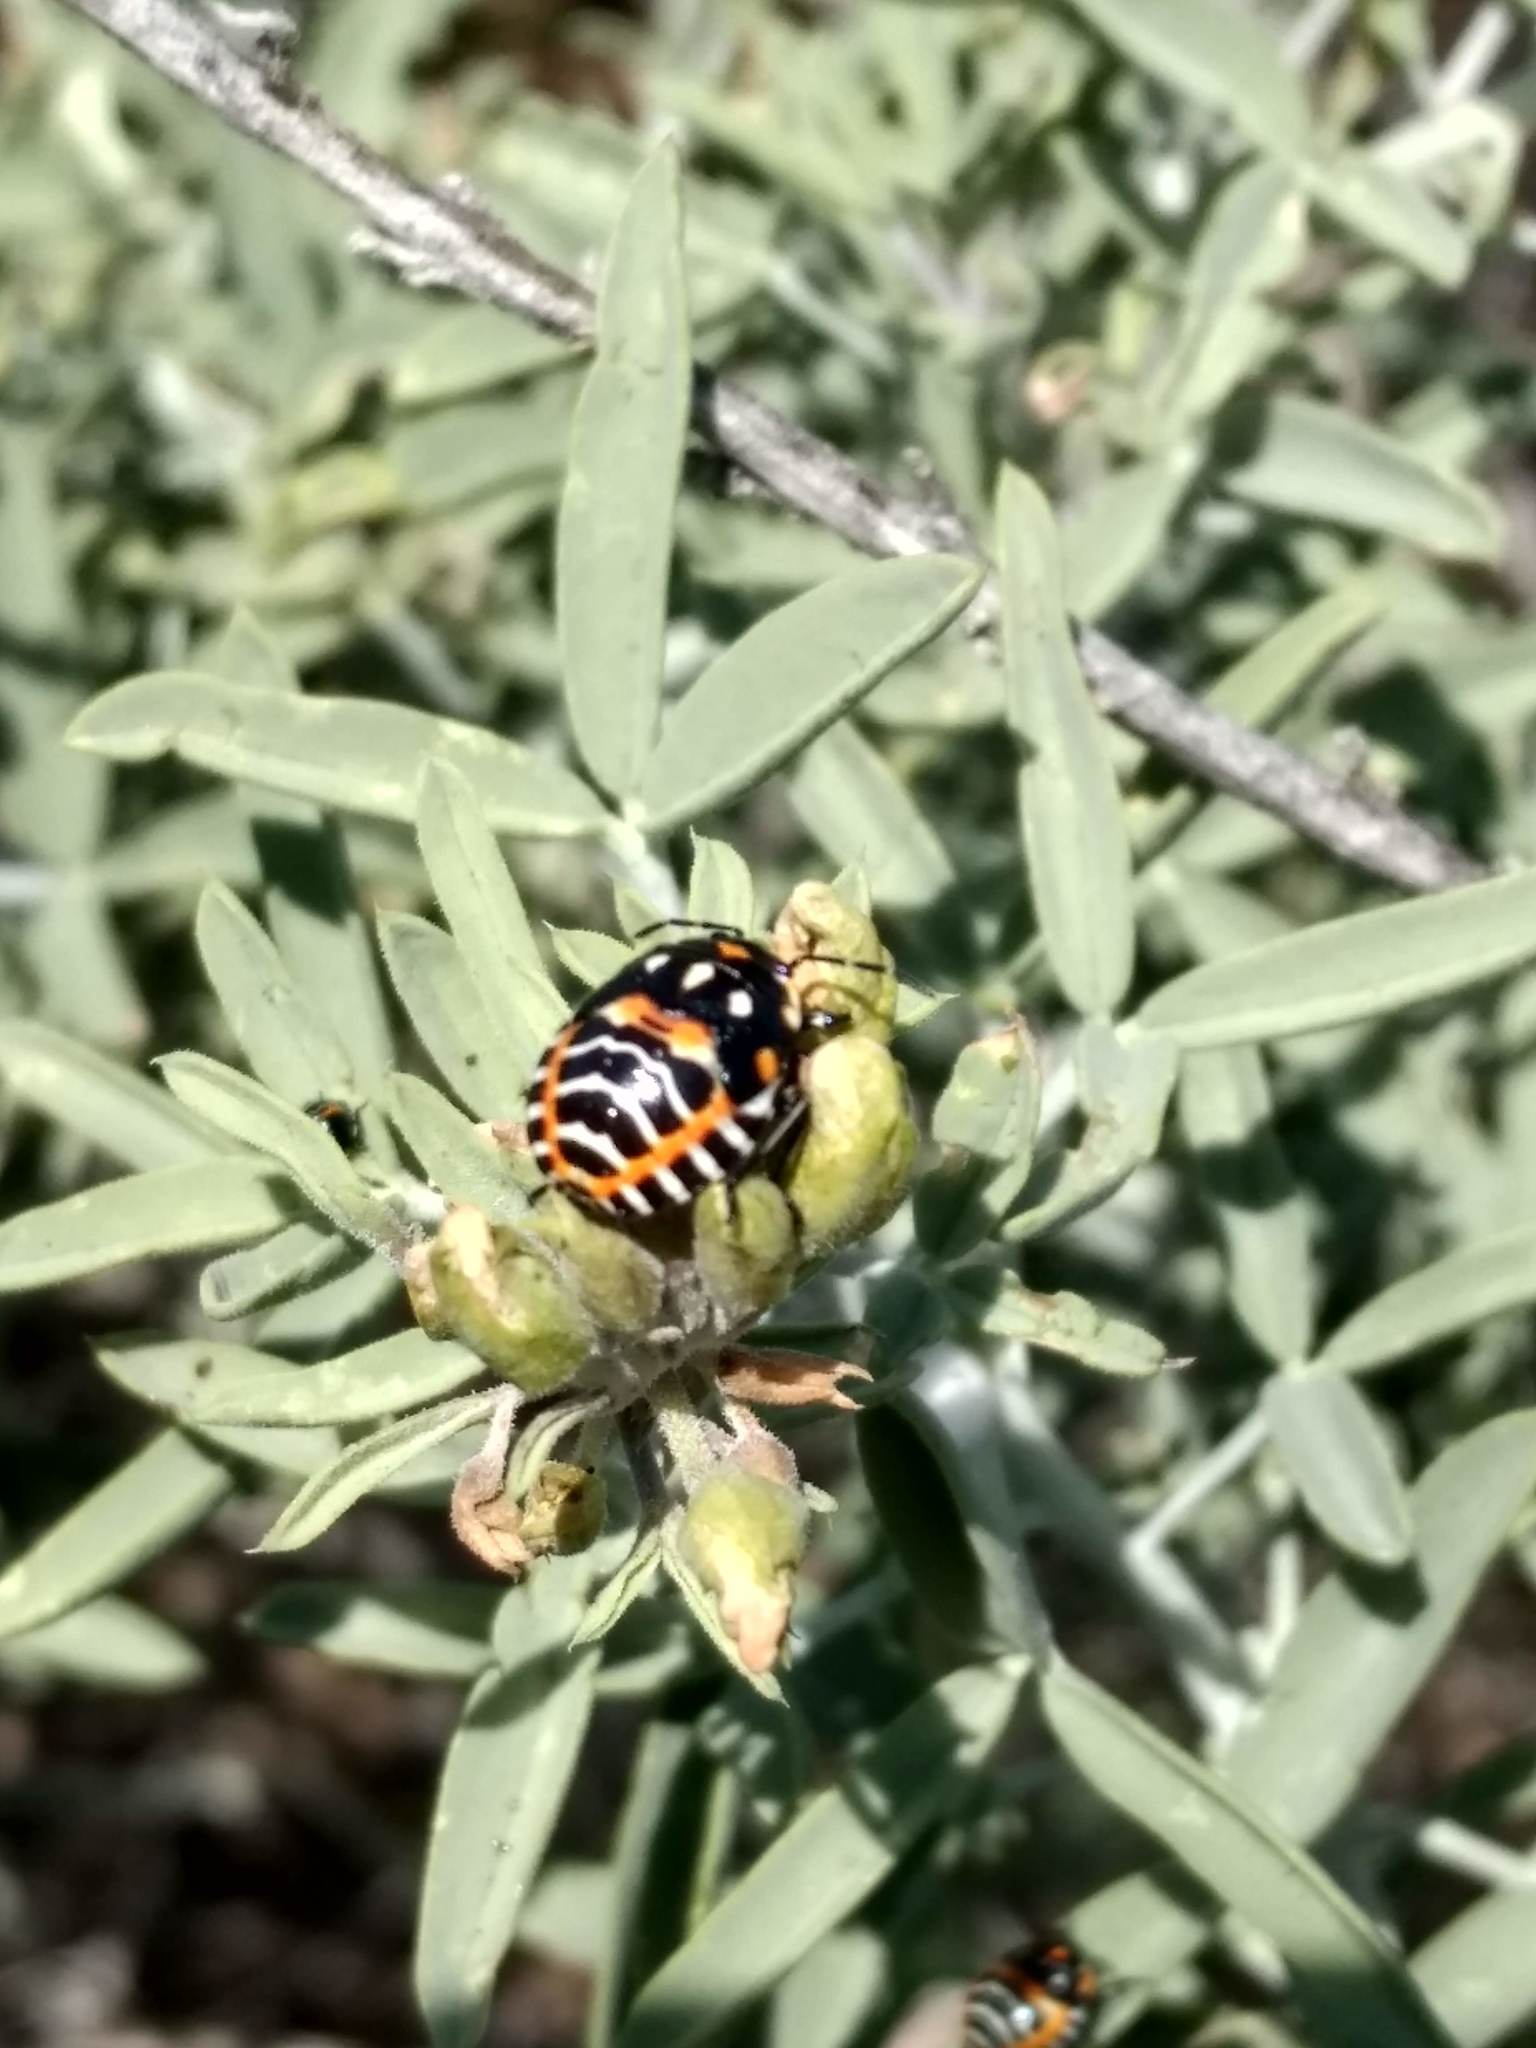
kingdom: Animalia
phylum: Arthropoda
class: Insecta
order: Hemiptera
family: Pentatomidae
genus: Murgantia
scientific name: Murgantia histrionica
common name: Harlequin bug
